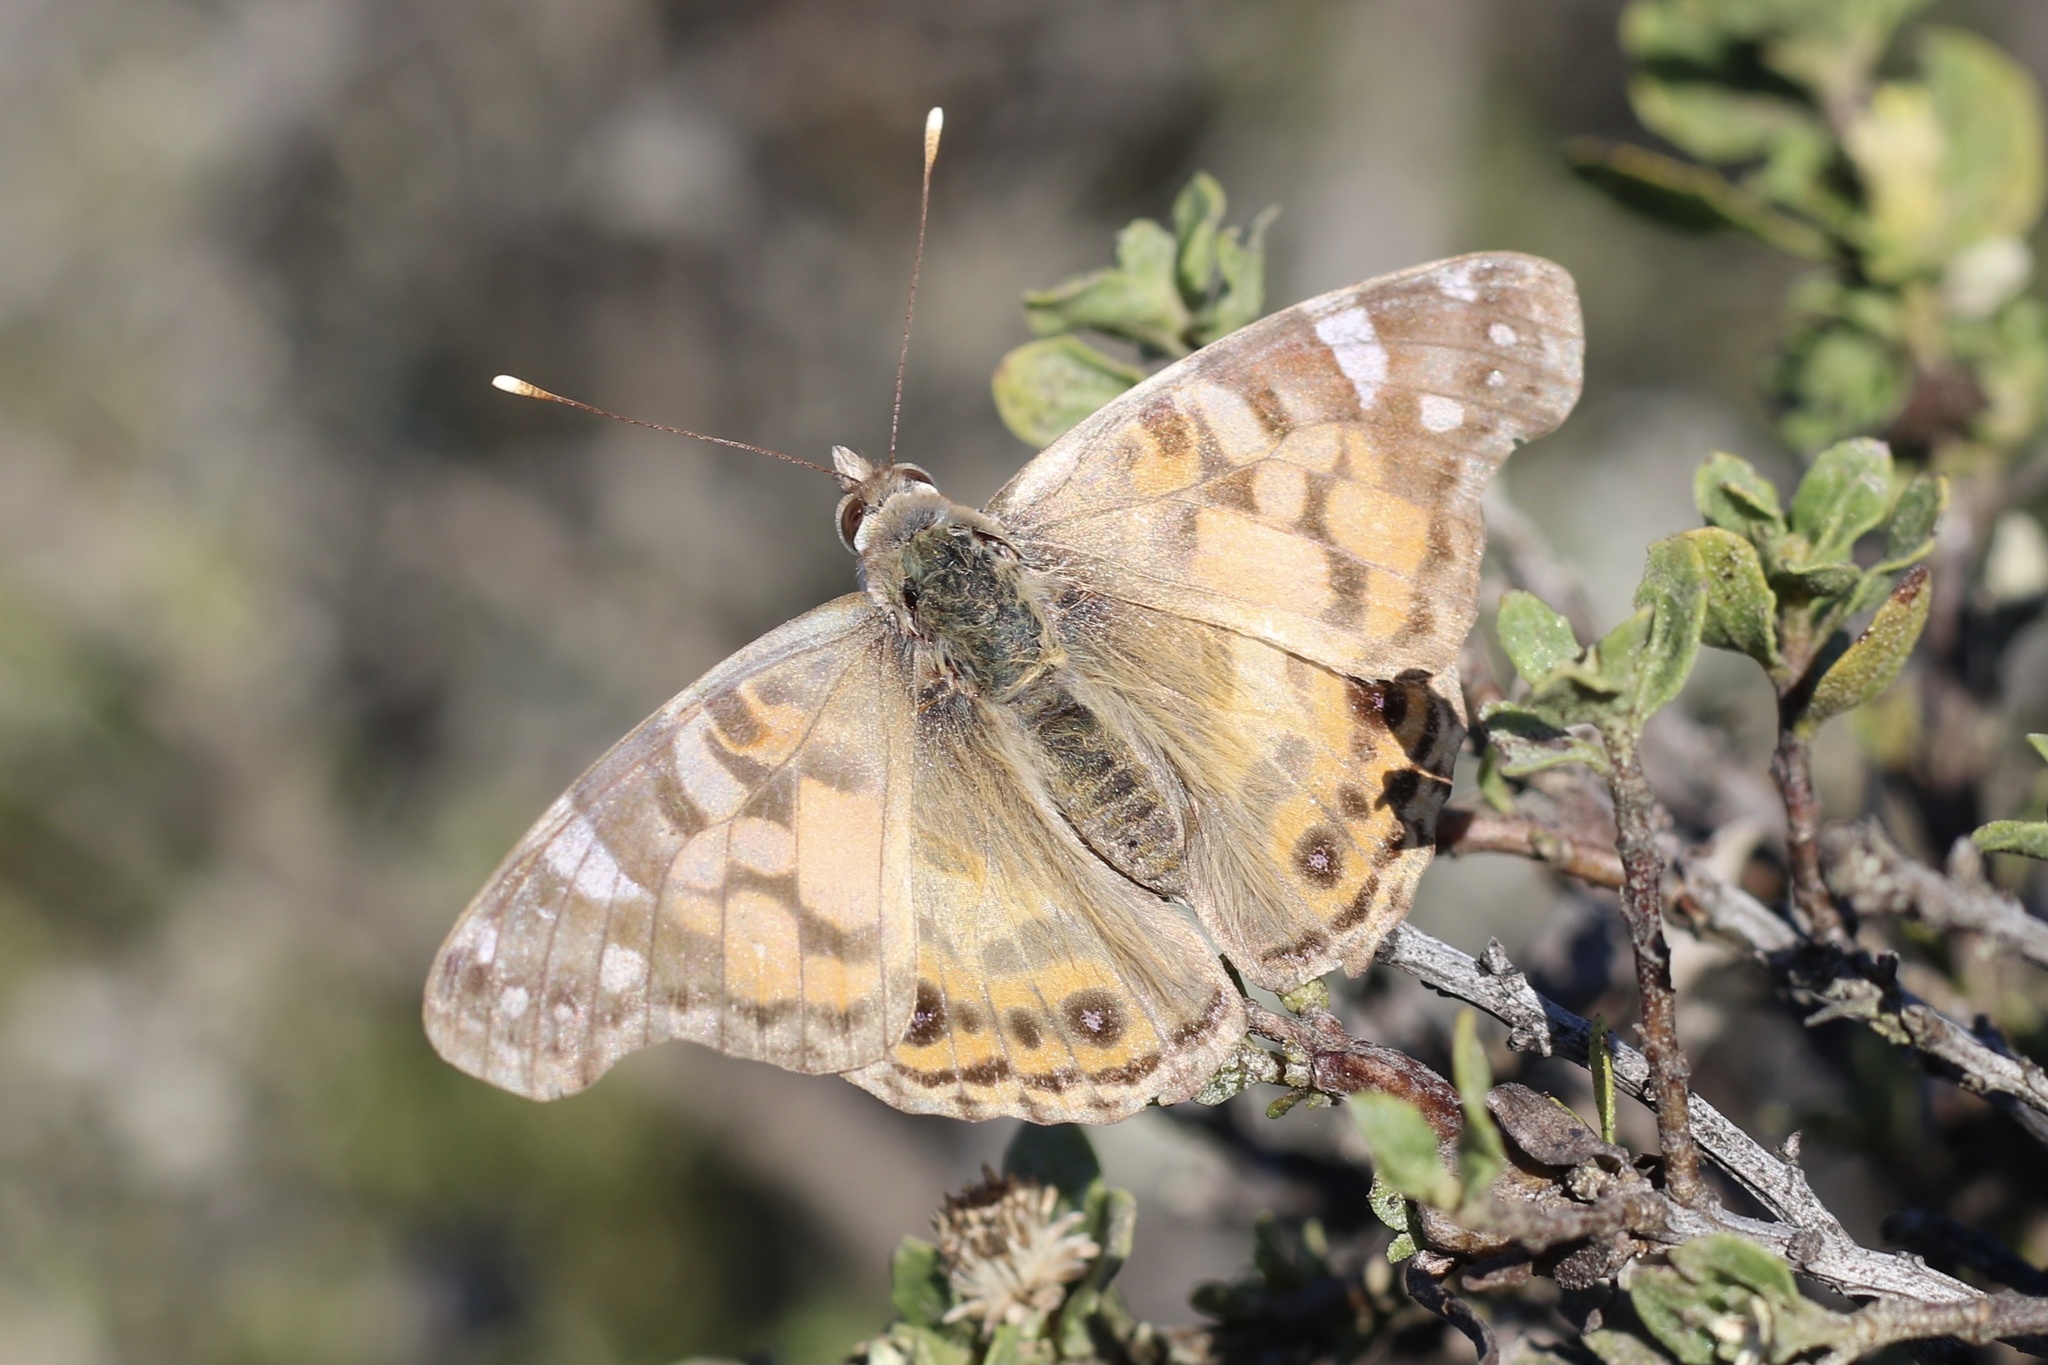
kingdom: Animalia
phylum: Arthropoda
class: Insecta
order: Lepidoptera
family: Nymphalidae
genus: Vanessa
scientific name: Vanessa virginiensis
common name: American lady
